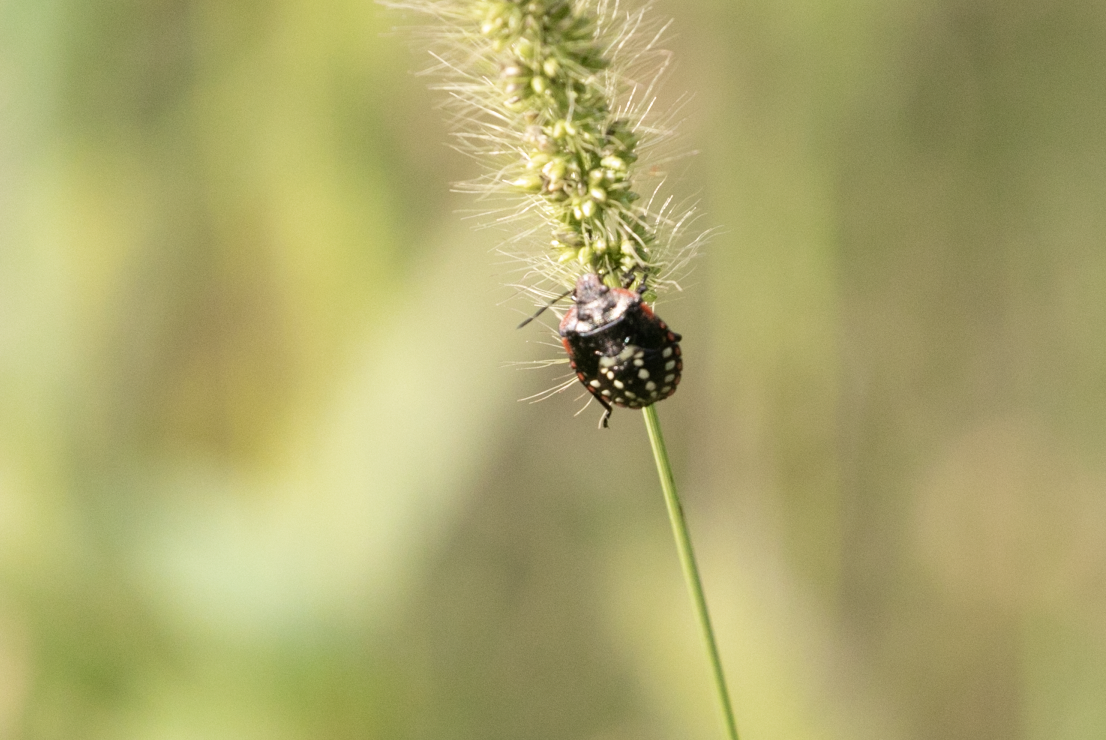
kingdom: Animalia
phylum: Arthropoda
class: Insecta
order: Hemiptera
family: Pentatomidae
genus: Nezara
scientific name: Nezara viridula
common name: Southern green stink bug
